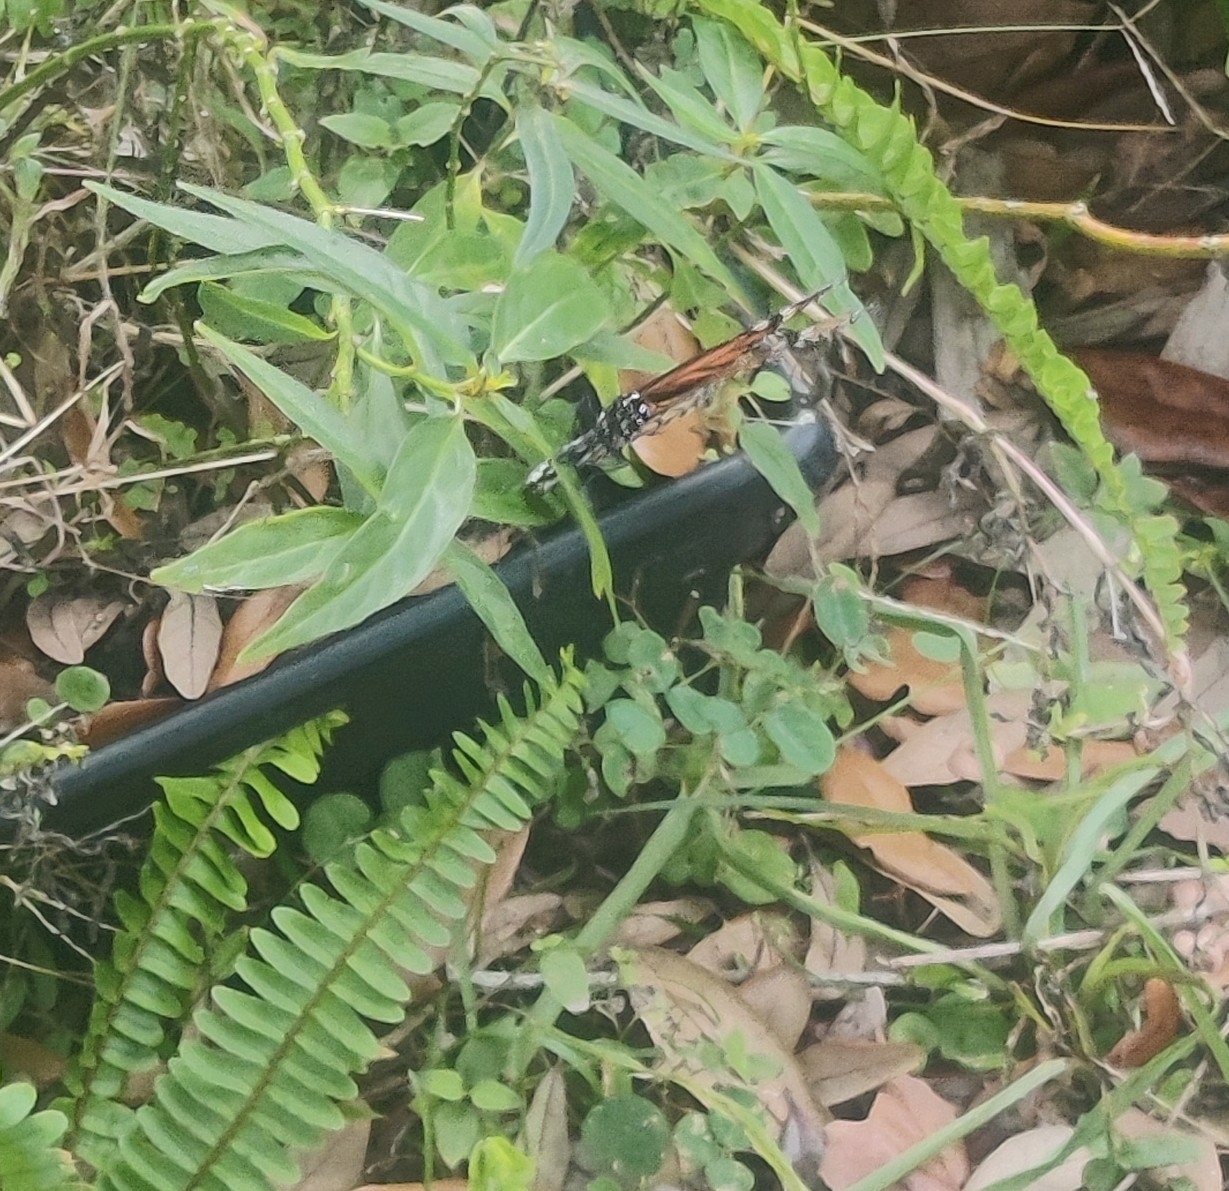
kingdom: Animalia
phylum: Arthropoda
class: Insecta
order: Lepidoptera
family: Nymphalidae
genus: Danaus
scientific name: Danaus plexippus
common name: Monarch
